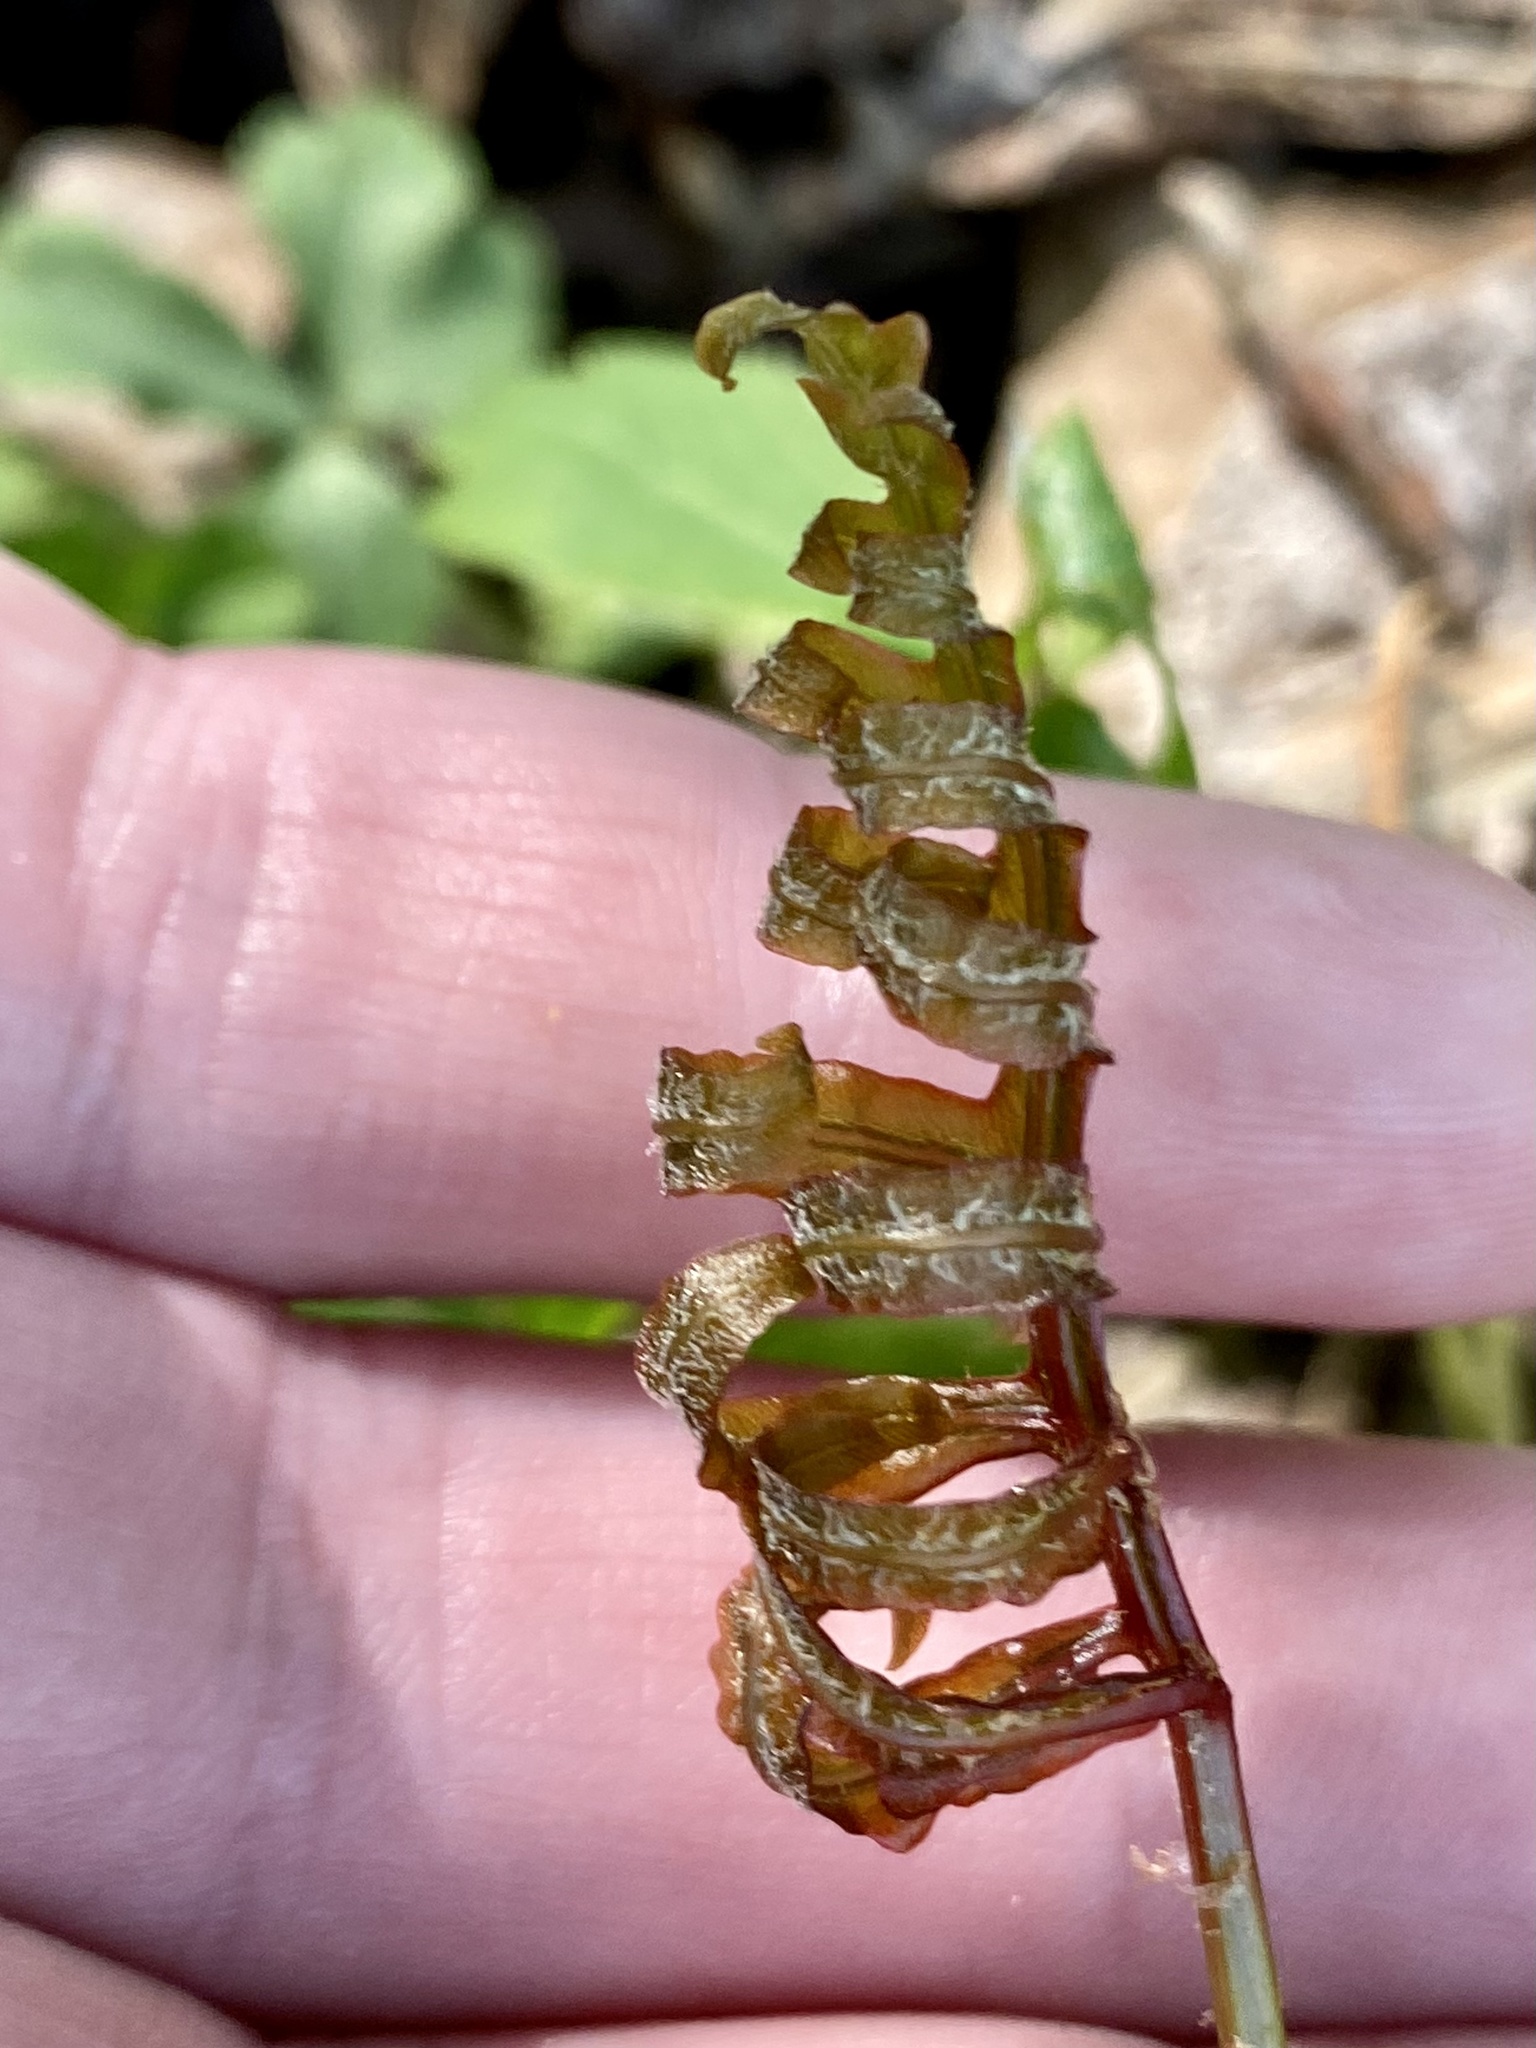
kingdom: Plantae
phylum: Tracheophyta
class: Polypodiopsida
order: Polypodiales
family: Onocleaceae
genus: Onoclea
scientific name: Onoclea sensibilis
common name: Sensitive fern
